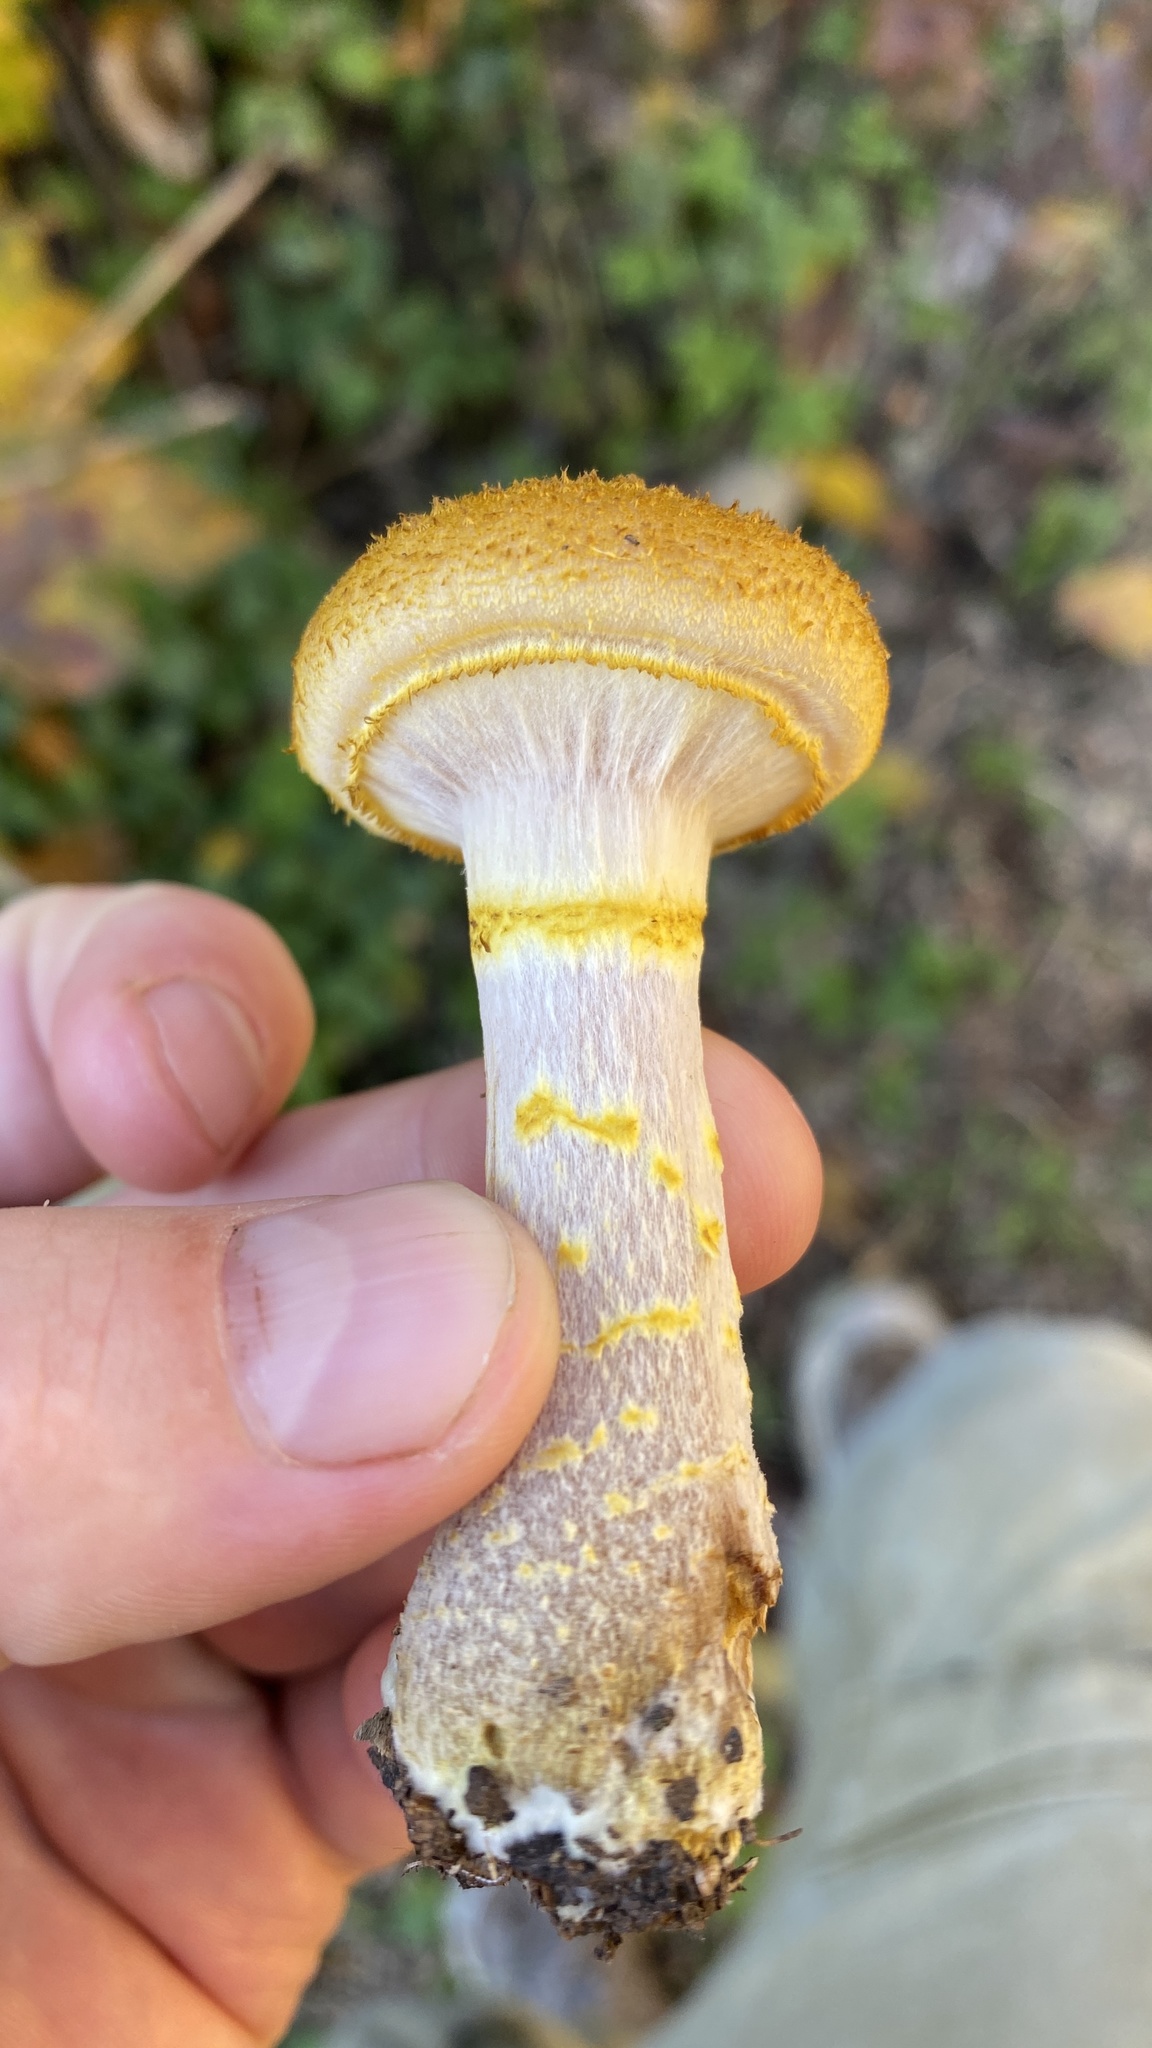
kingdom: Fungi
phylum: Basidiomycota
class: Agaricomycetes
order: Agaricales
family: Physalacriaceae
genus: Armillaria
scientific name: Armillaria gallica
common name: Bulbous honey fungus
